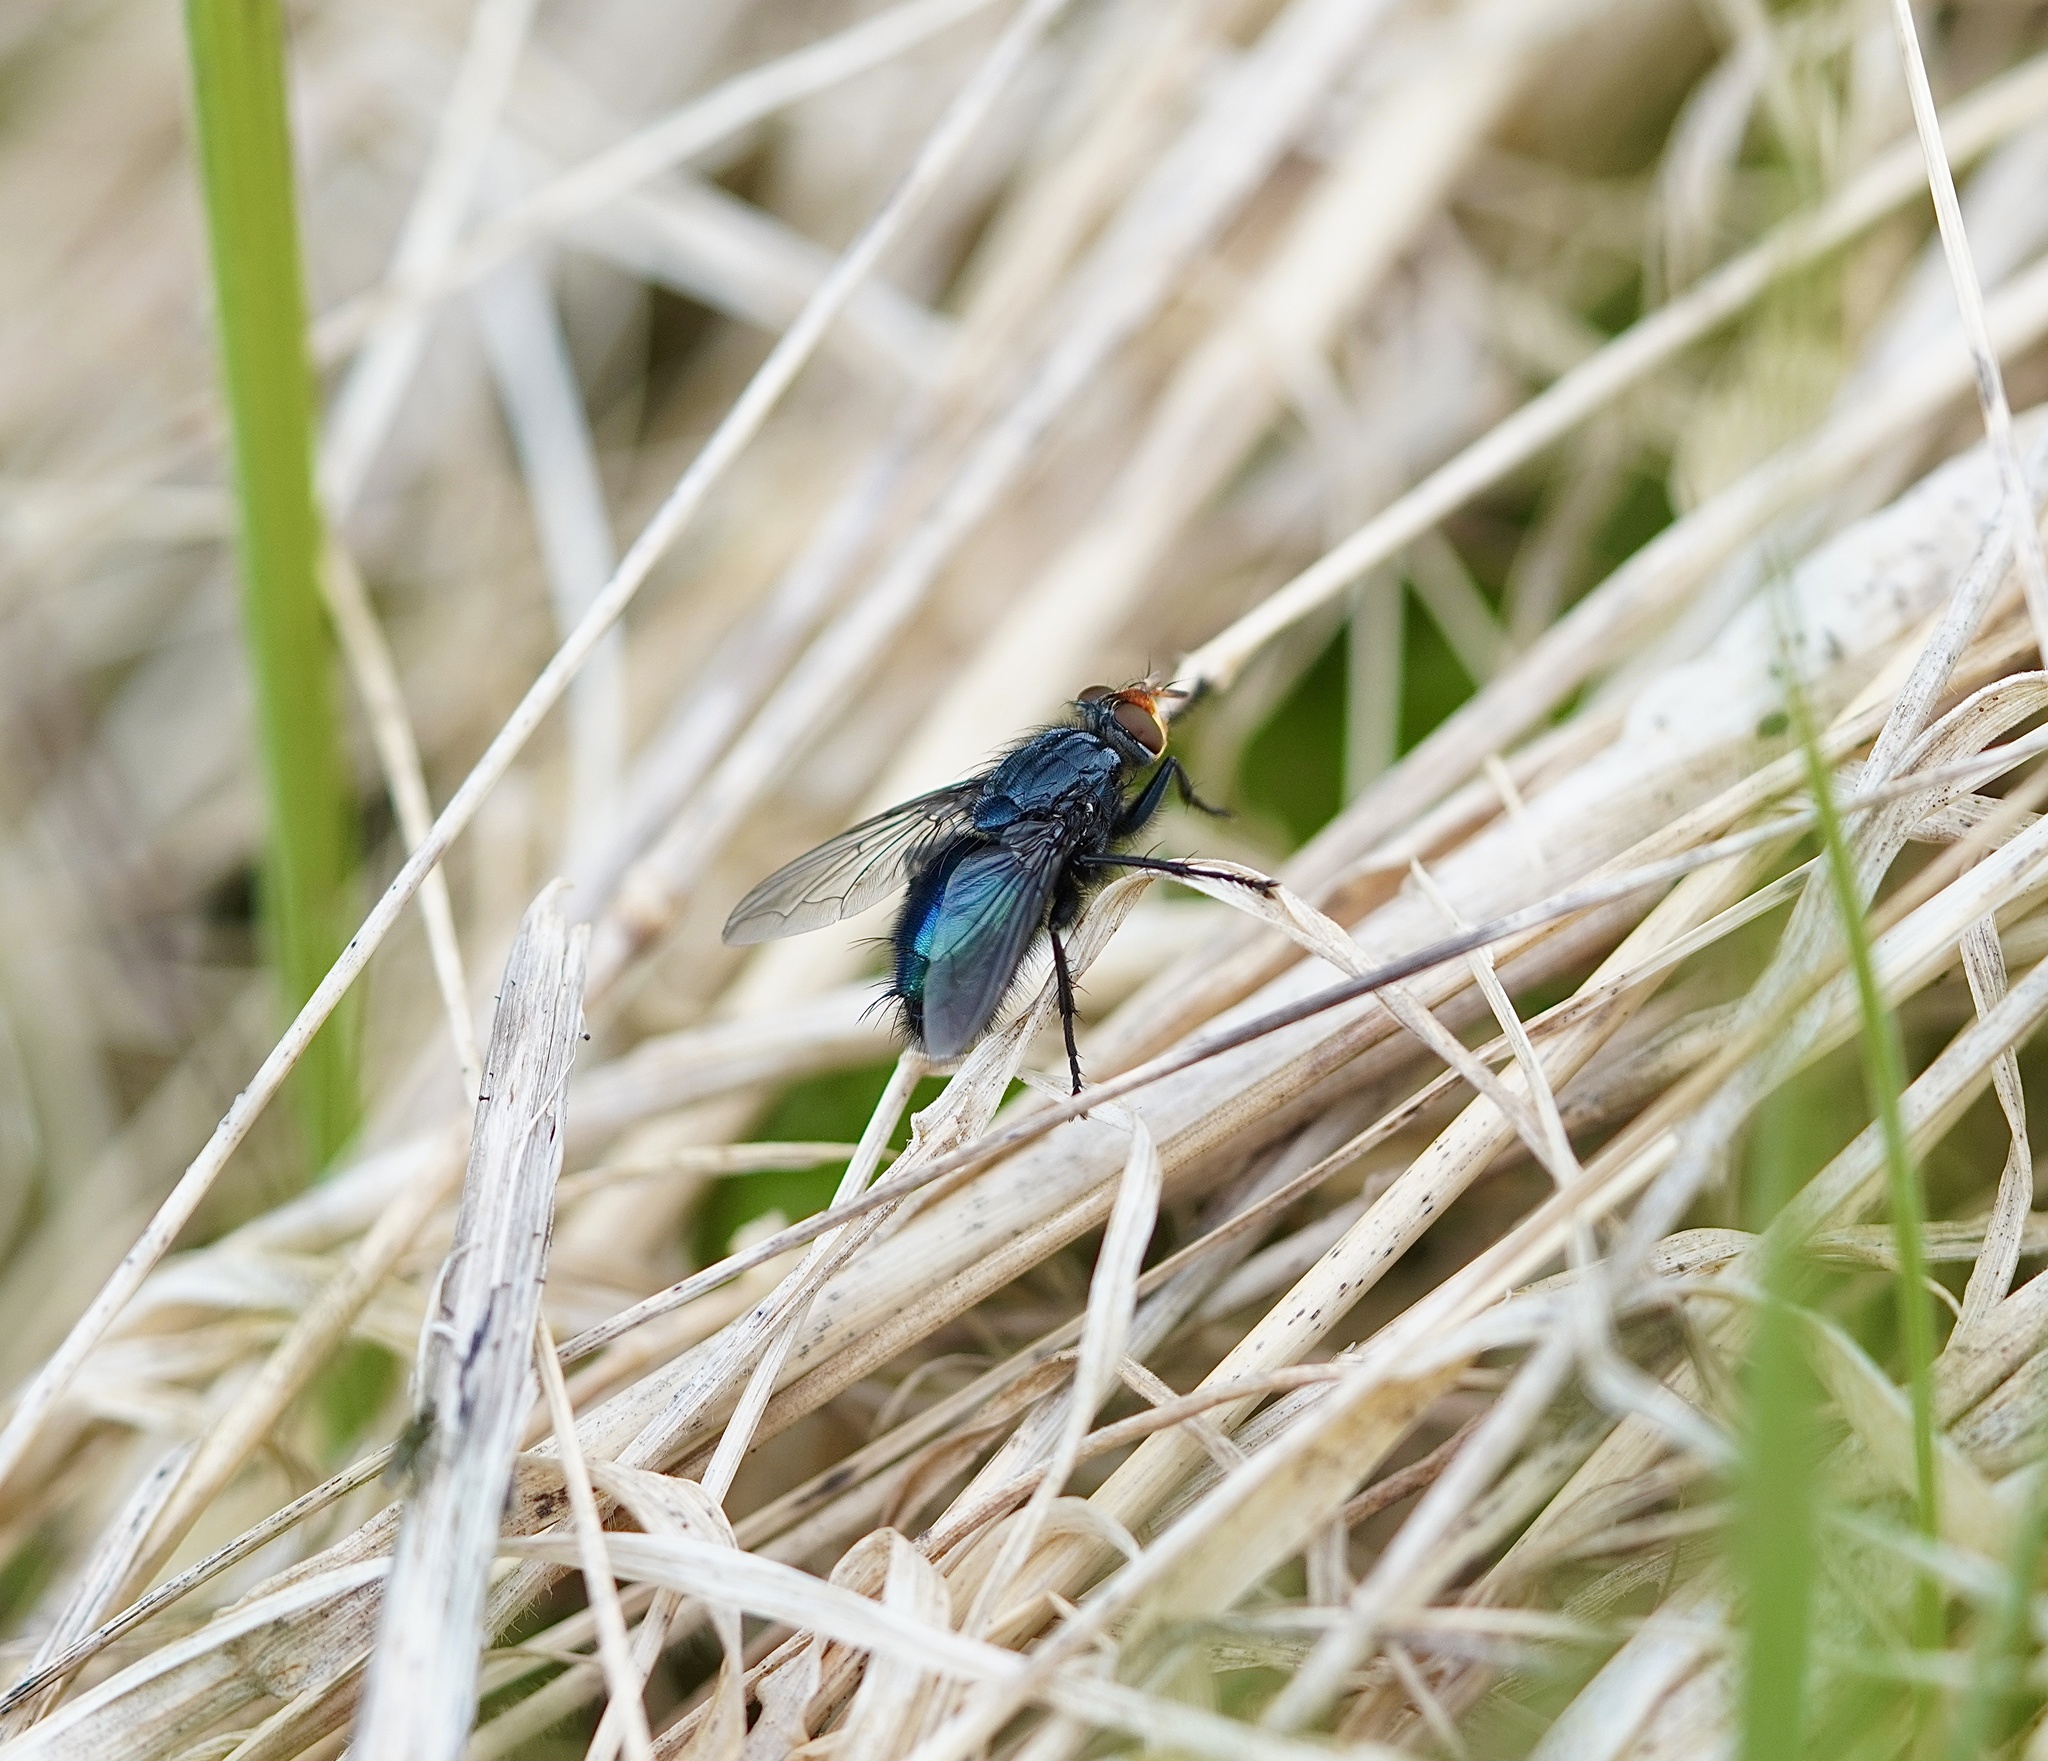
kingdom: Animalia
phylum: Arthropoda
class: Insecta
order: Diptera
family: Calliphoridae
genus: Cynomya
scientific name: Cynomya mortuorum
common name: Bluebottle blow fly
